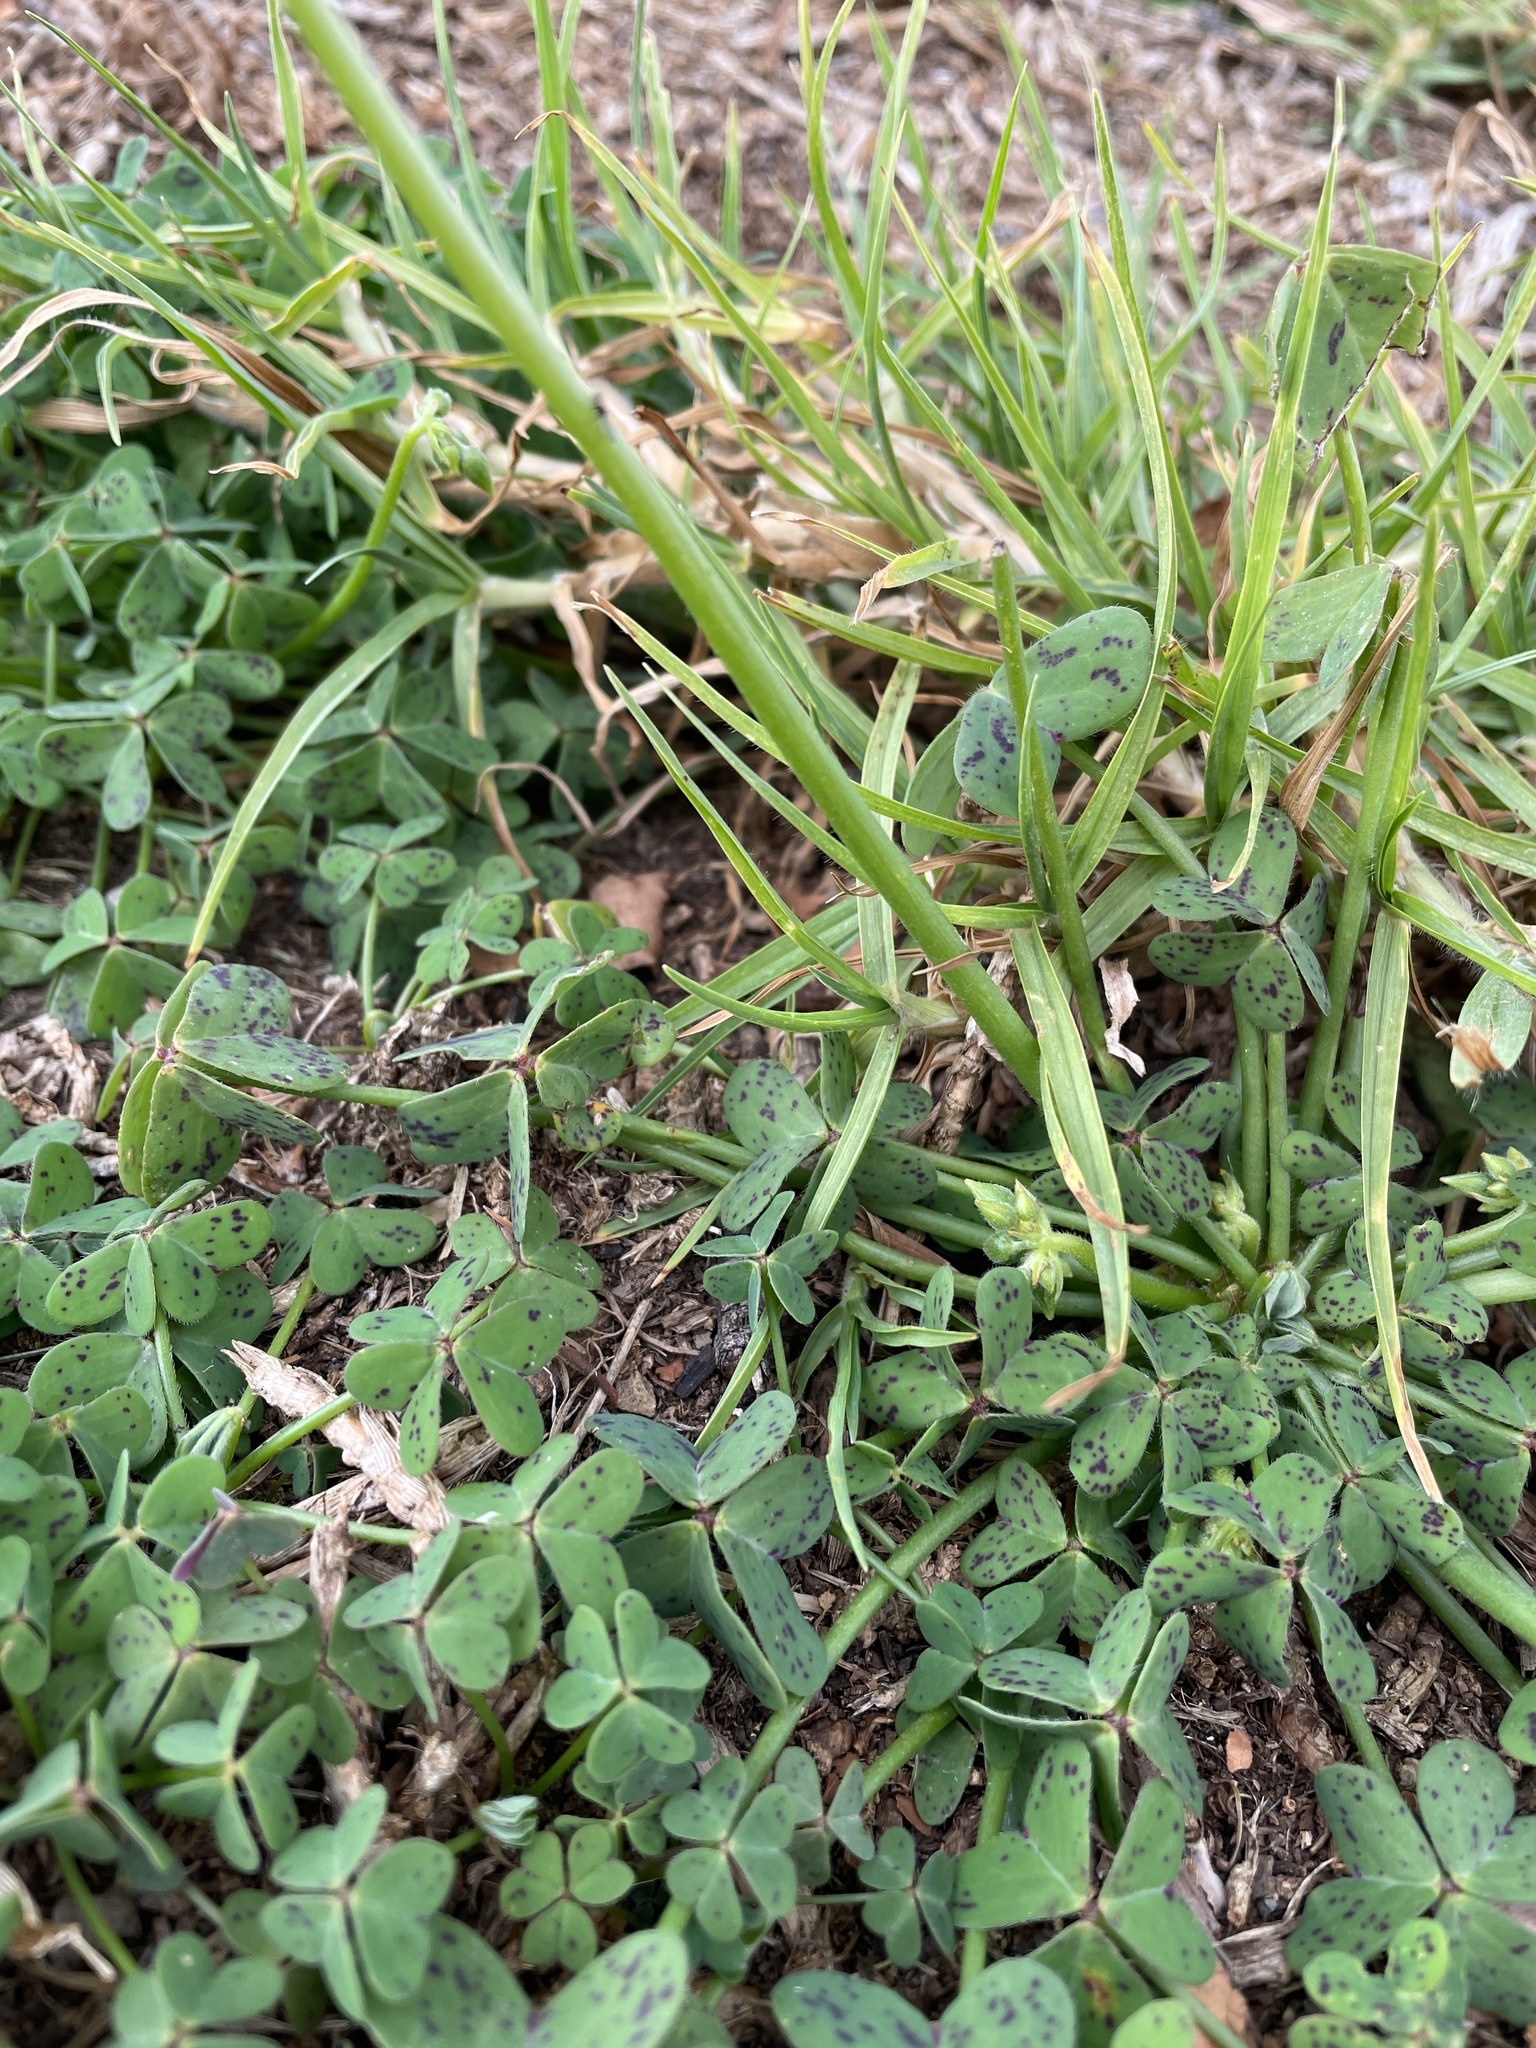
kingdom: Plantae
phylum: Tracheophyta
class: Magnoliopsida
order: Oxalidales
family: Oxalidaceae
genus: Oxalis
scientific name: Oxalis pes-caprae
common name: Bermuda-buttercup
